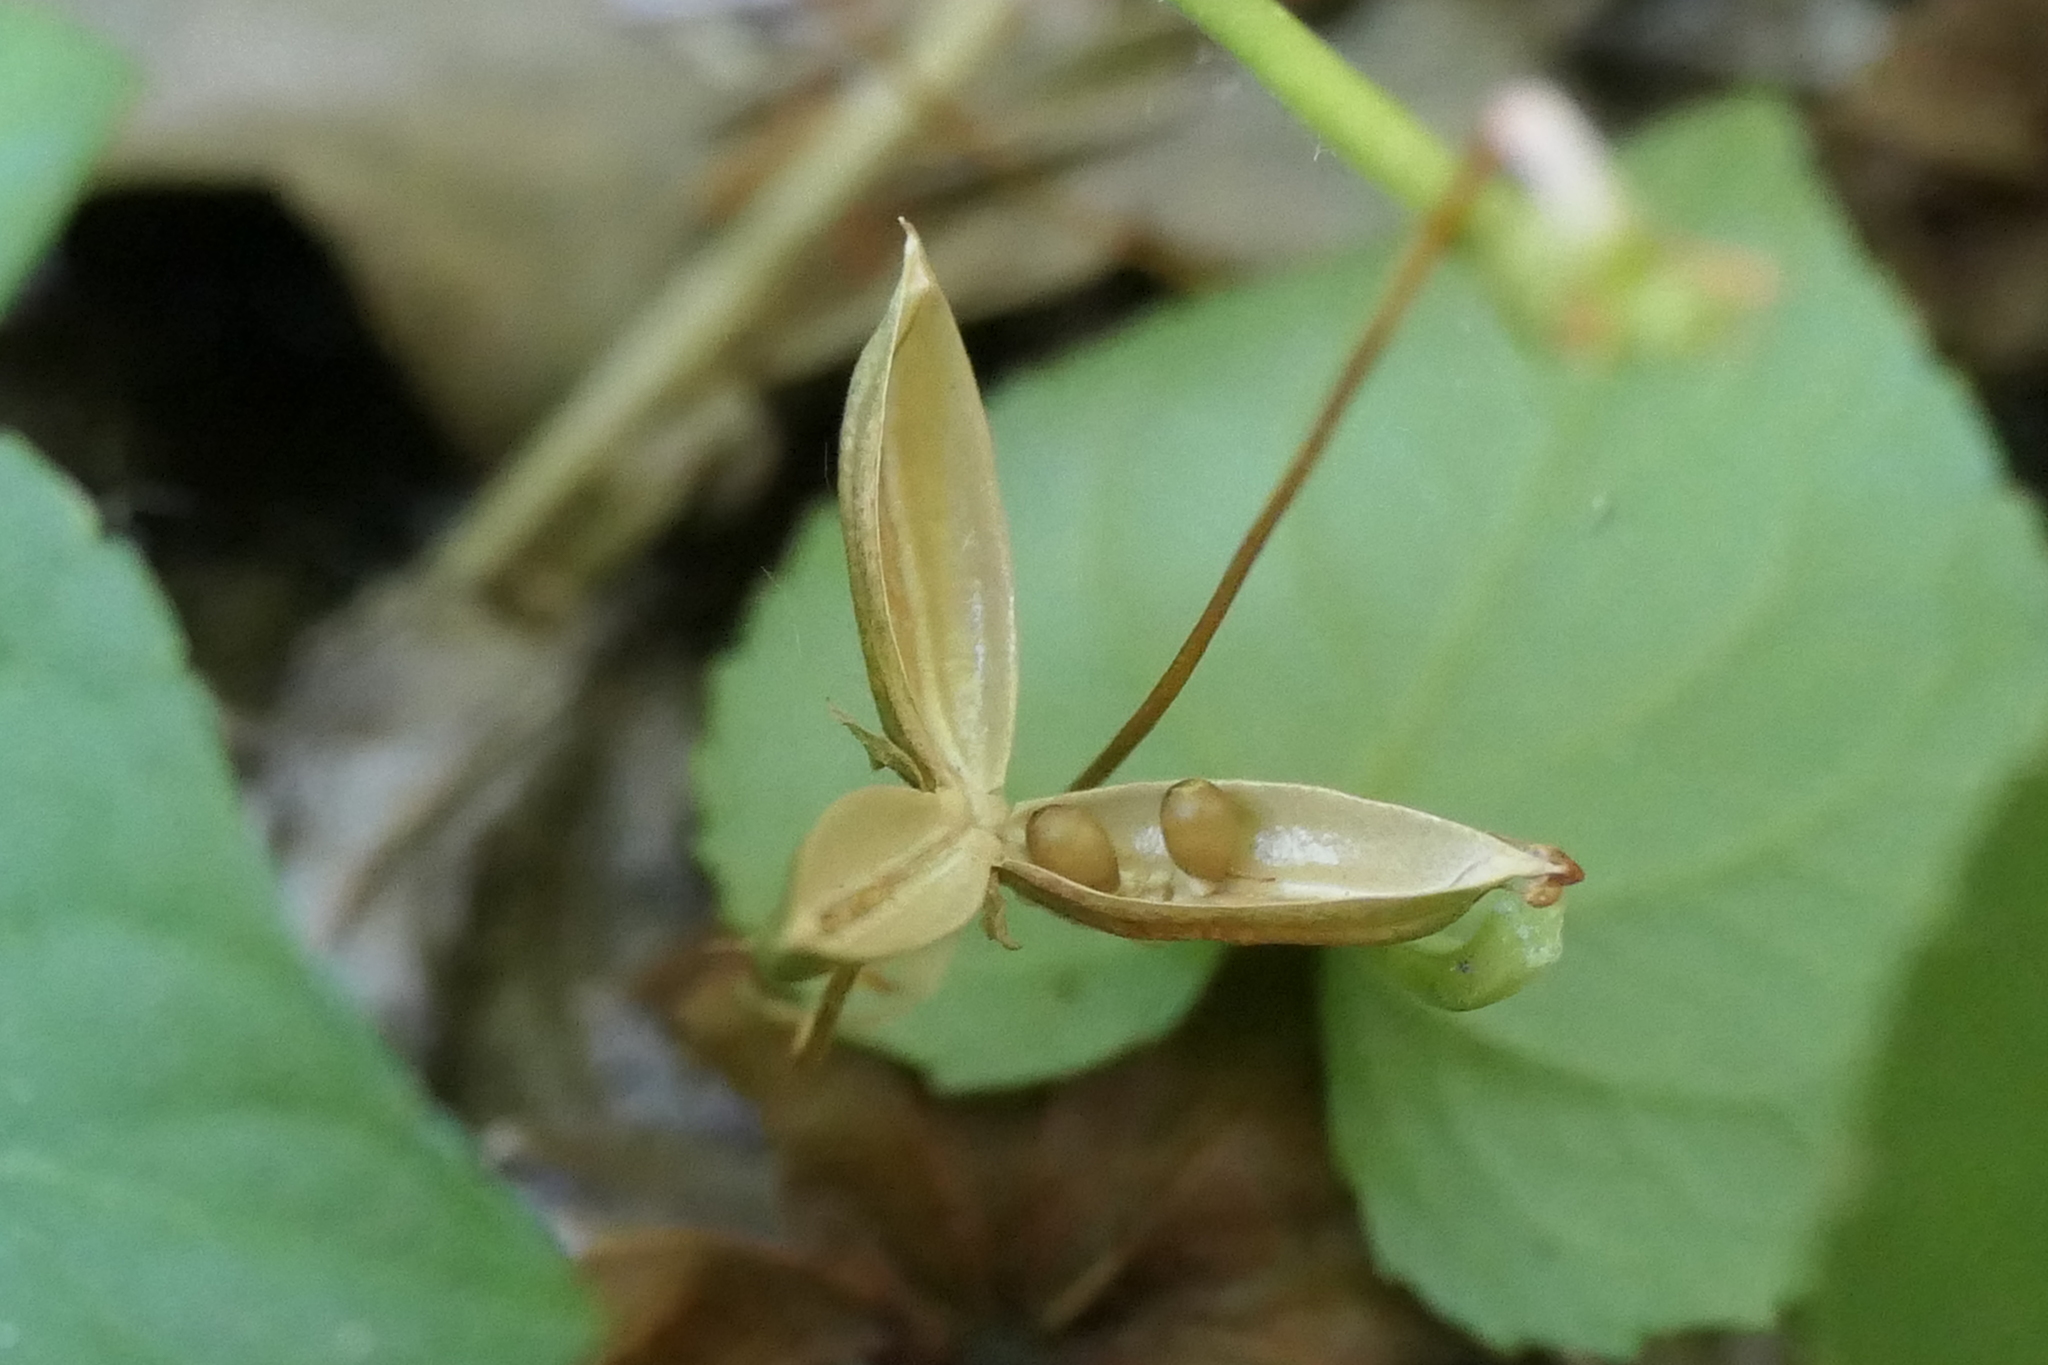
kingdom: Plantae
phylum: Tracheophyta
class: Magnoliopsida
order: Malpighiales
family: Violaceae
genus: Viola
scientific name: Viola riviniana
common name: Common dog-violet
